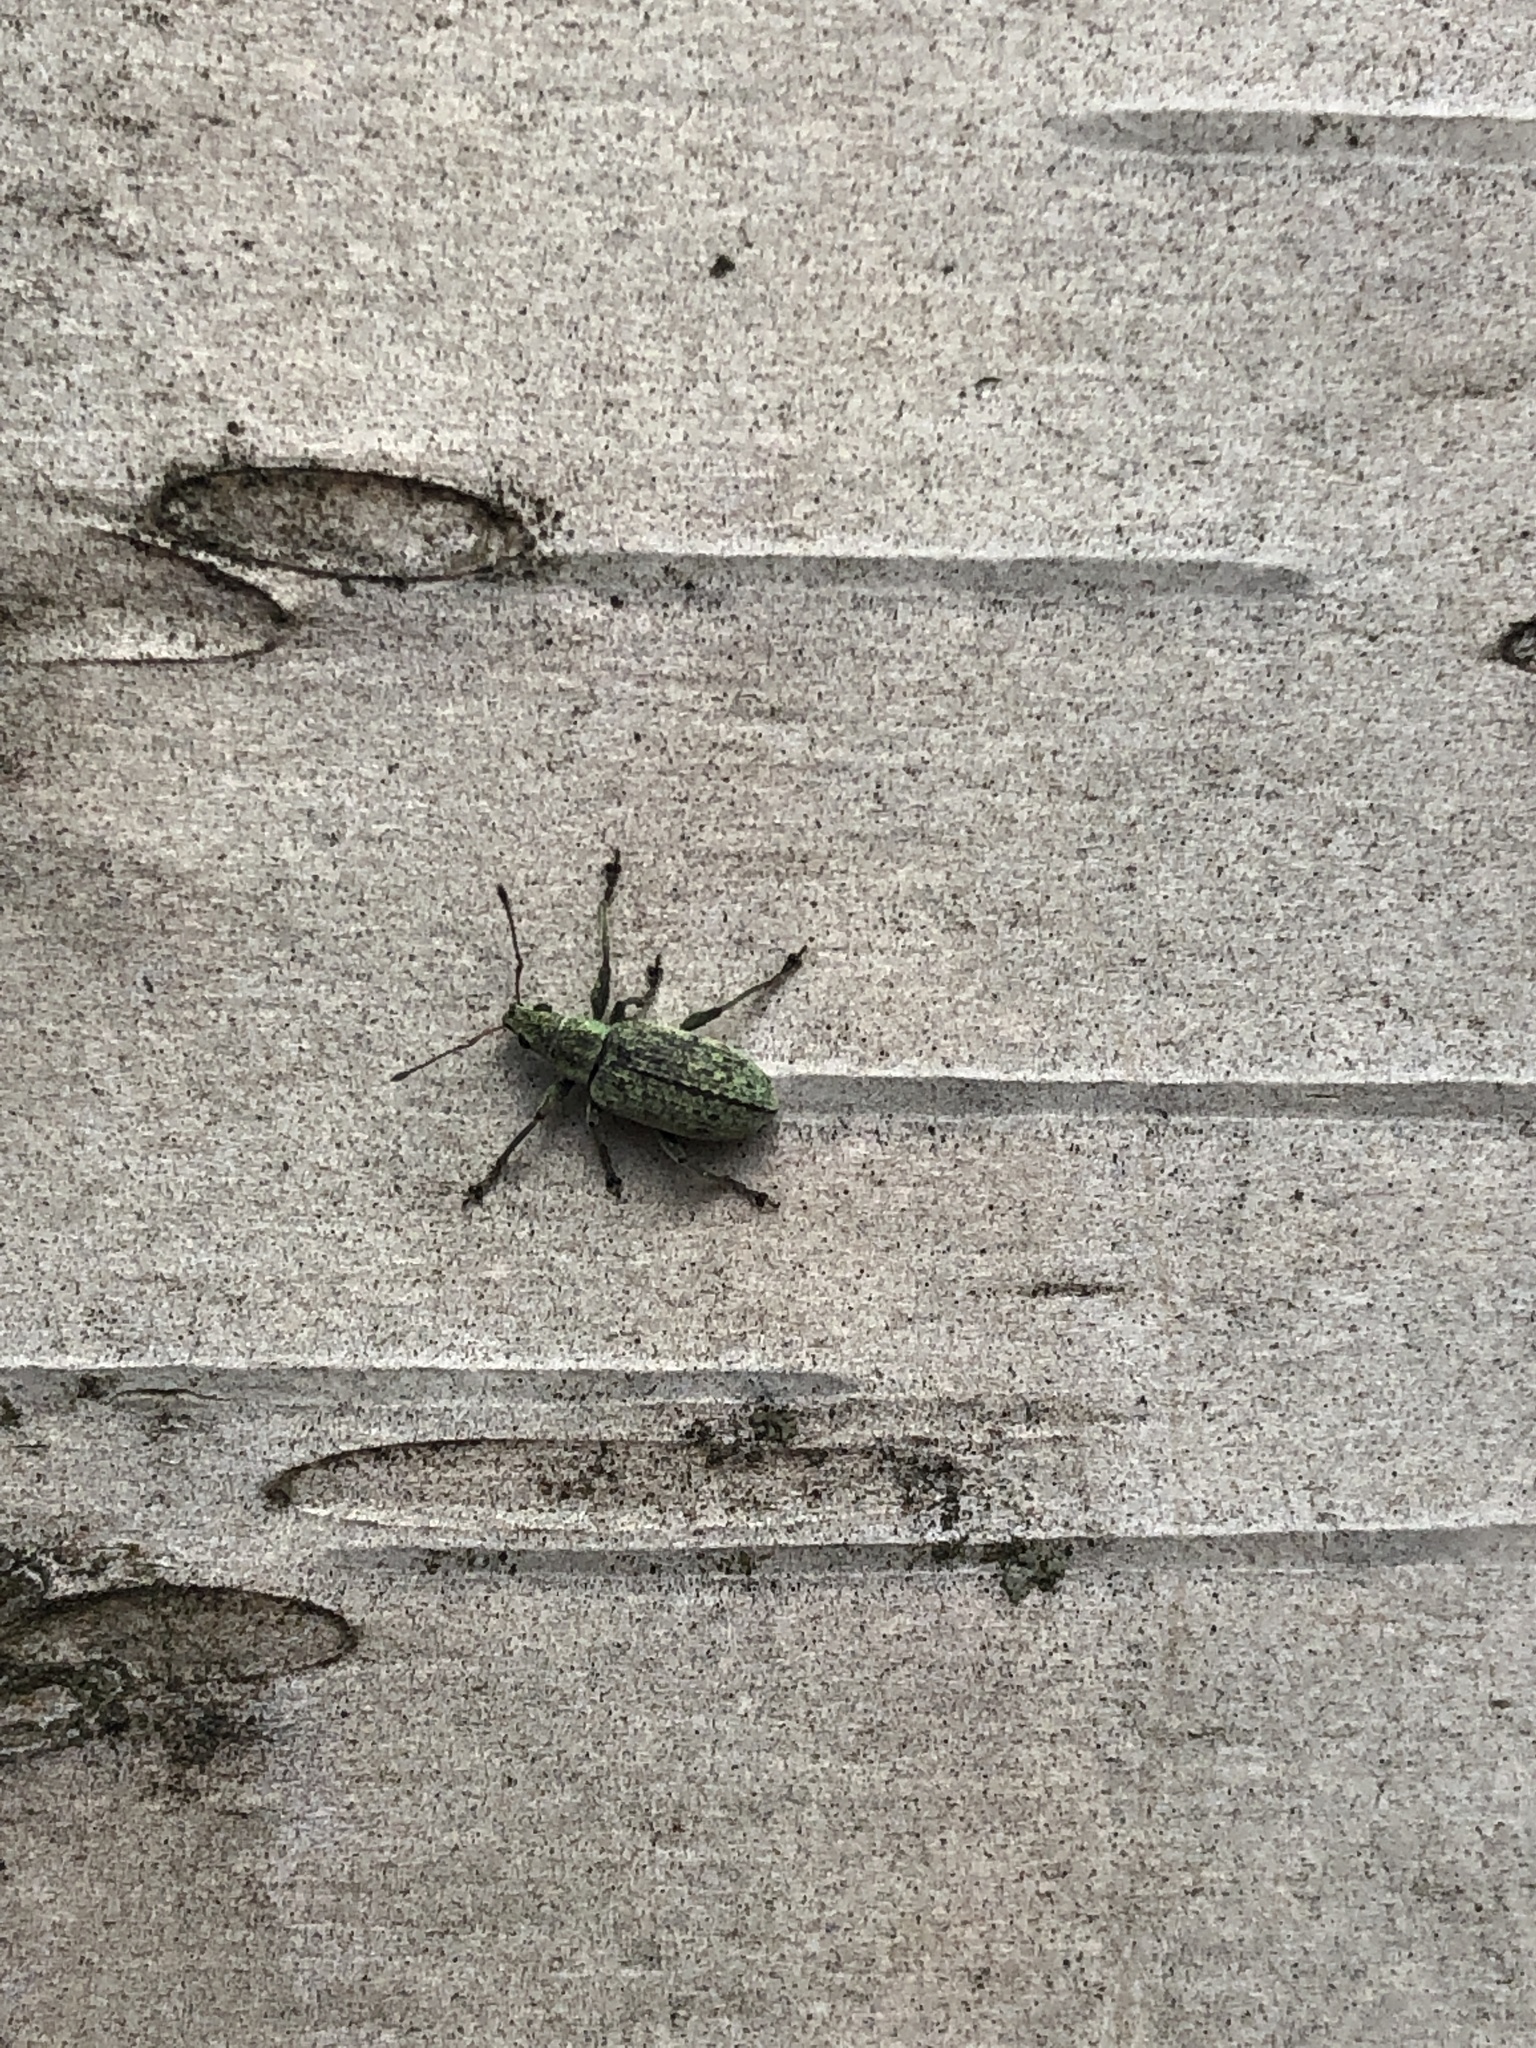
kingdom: Animalia
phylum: Arthropoda
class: Insecta
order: Coleoptera
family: Curculionidae
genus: Polydrusus
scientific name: Polydrusus cervinus
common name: Weevil
